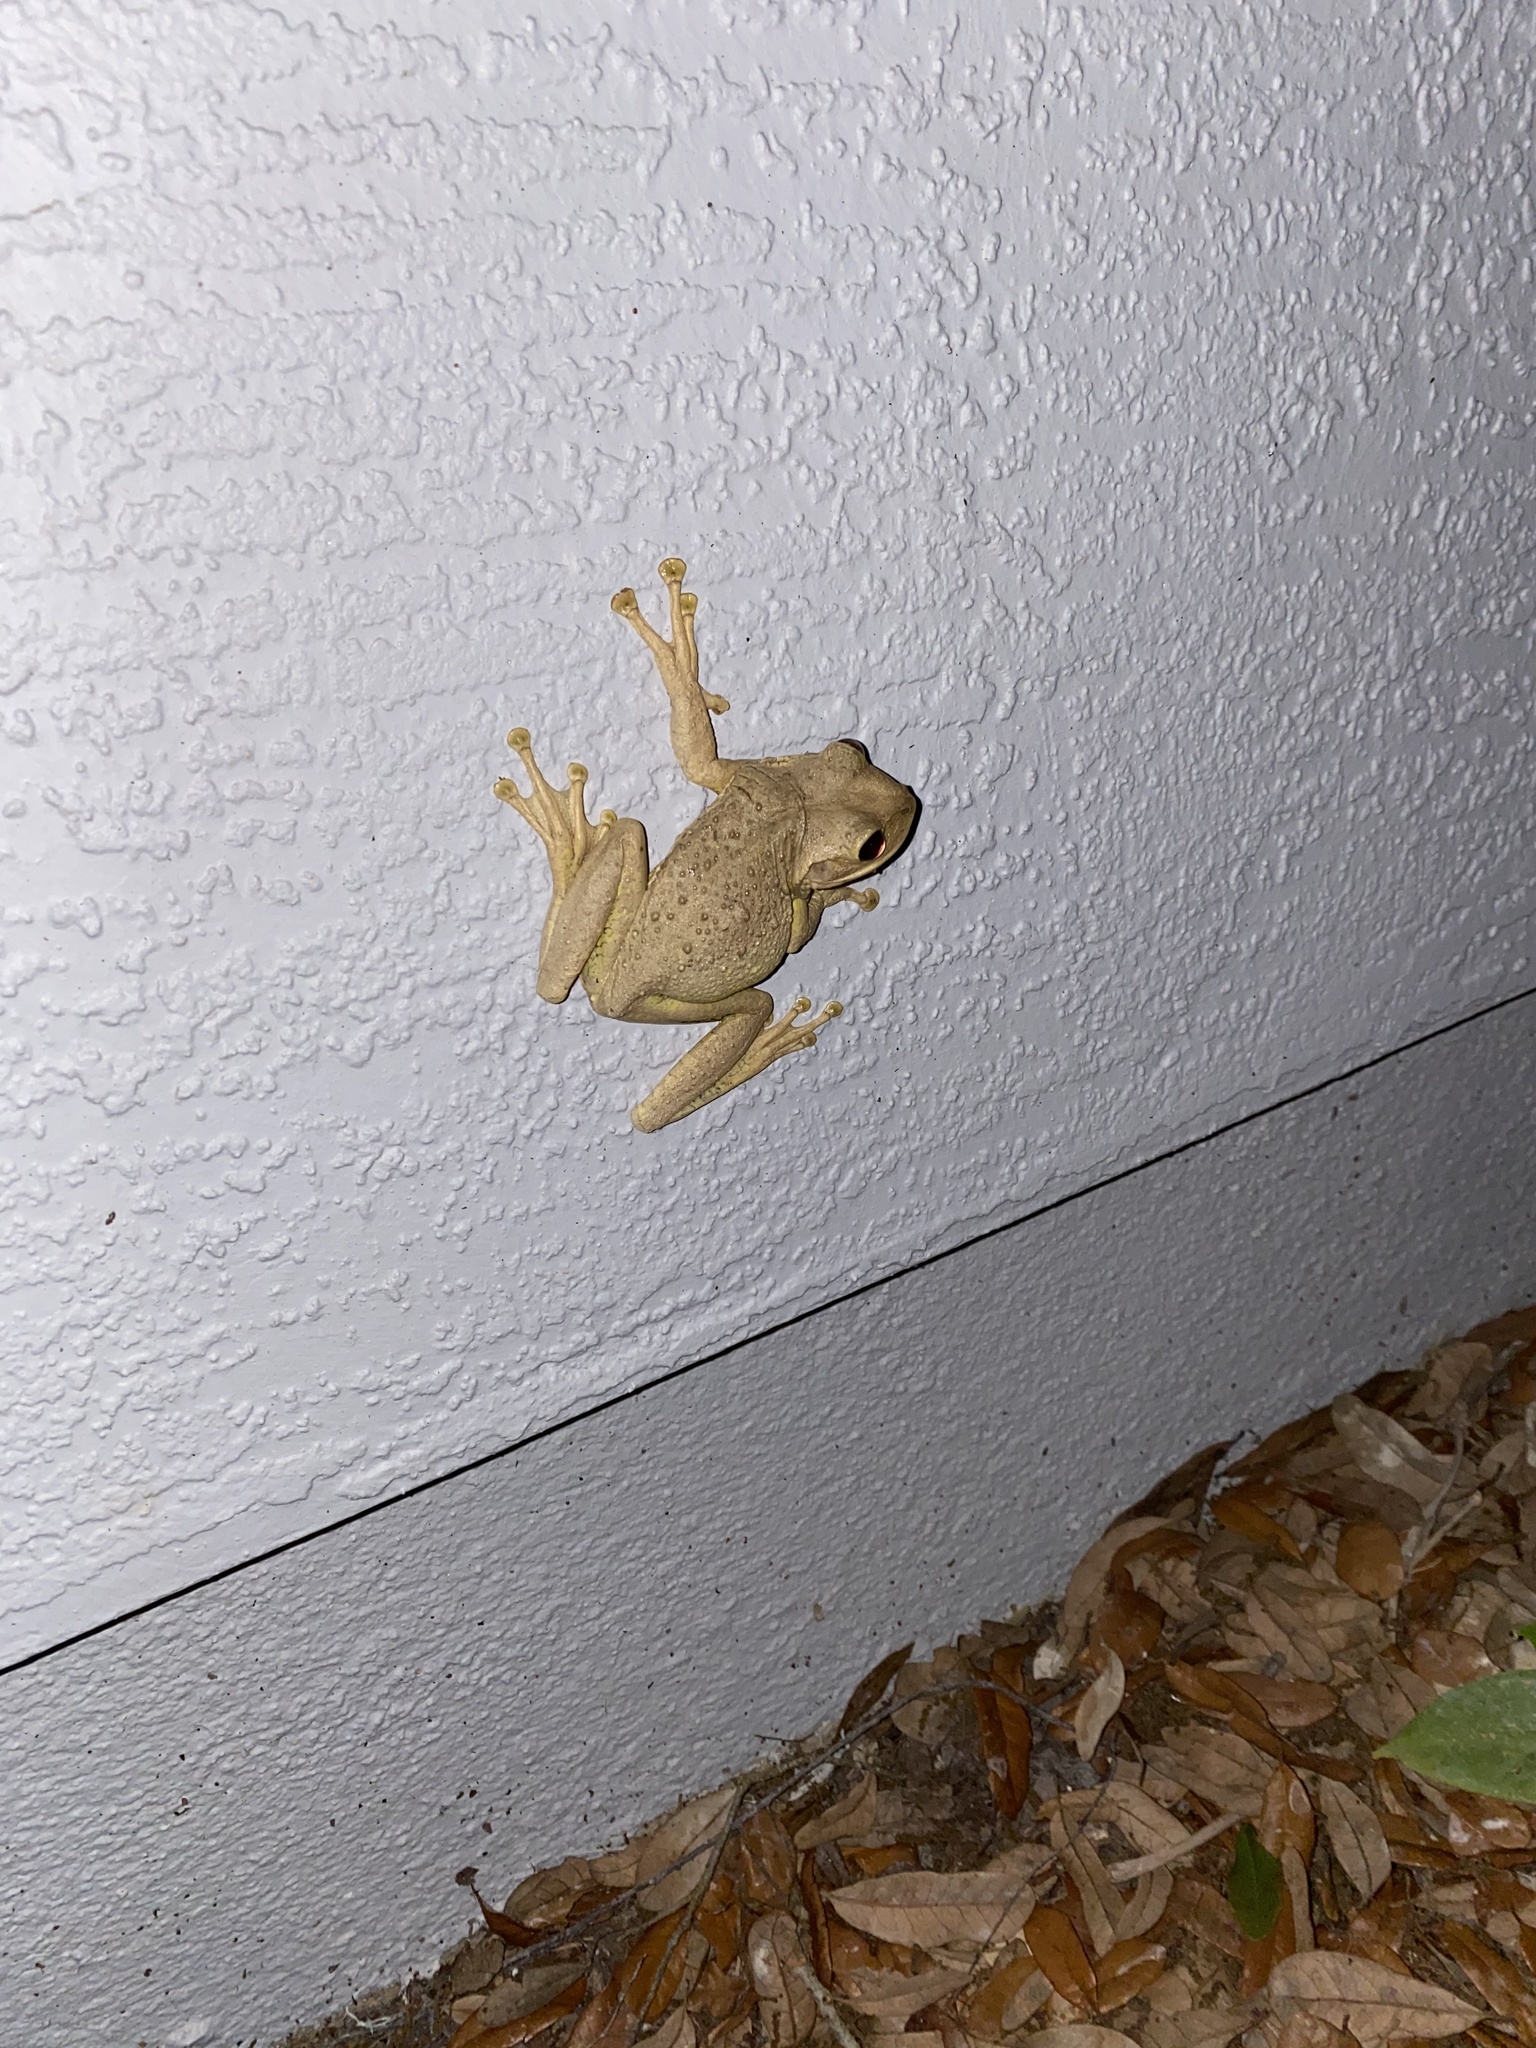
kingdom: Animalia
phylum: Chordata
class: Amphibia
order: Anura
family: Hylidae
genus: Osteopilus
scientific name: Osteopilus septentrionalis
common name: Cuban treefrog
